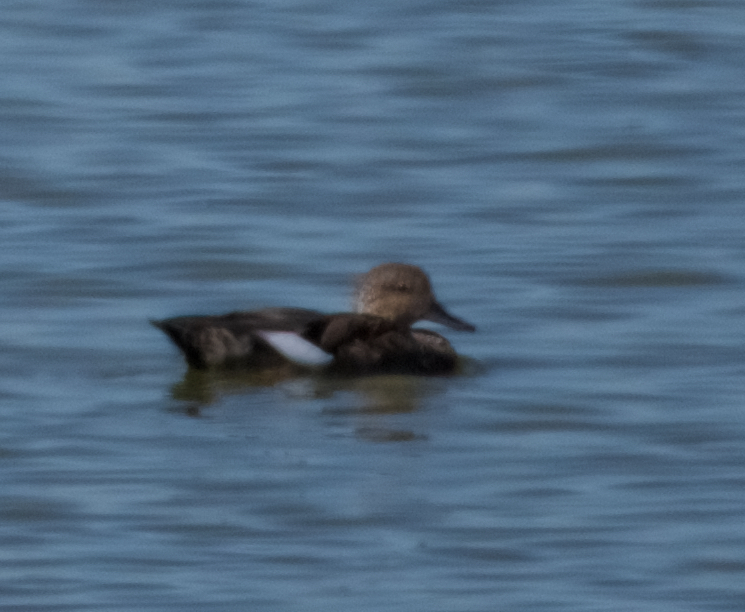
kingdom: Animalia
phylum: Chordata
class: Aves
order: Anseriformes
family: Anatidae
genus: Mareca
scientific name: Mareca strepera
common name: Gadwall
